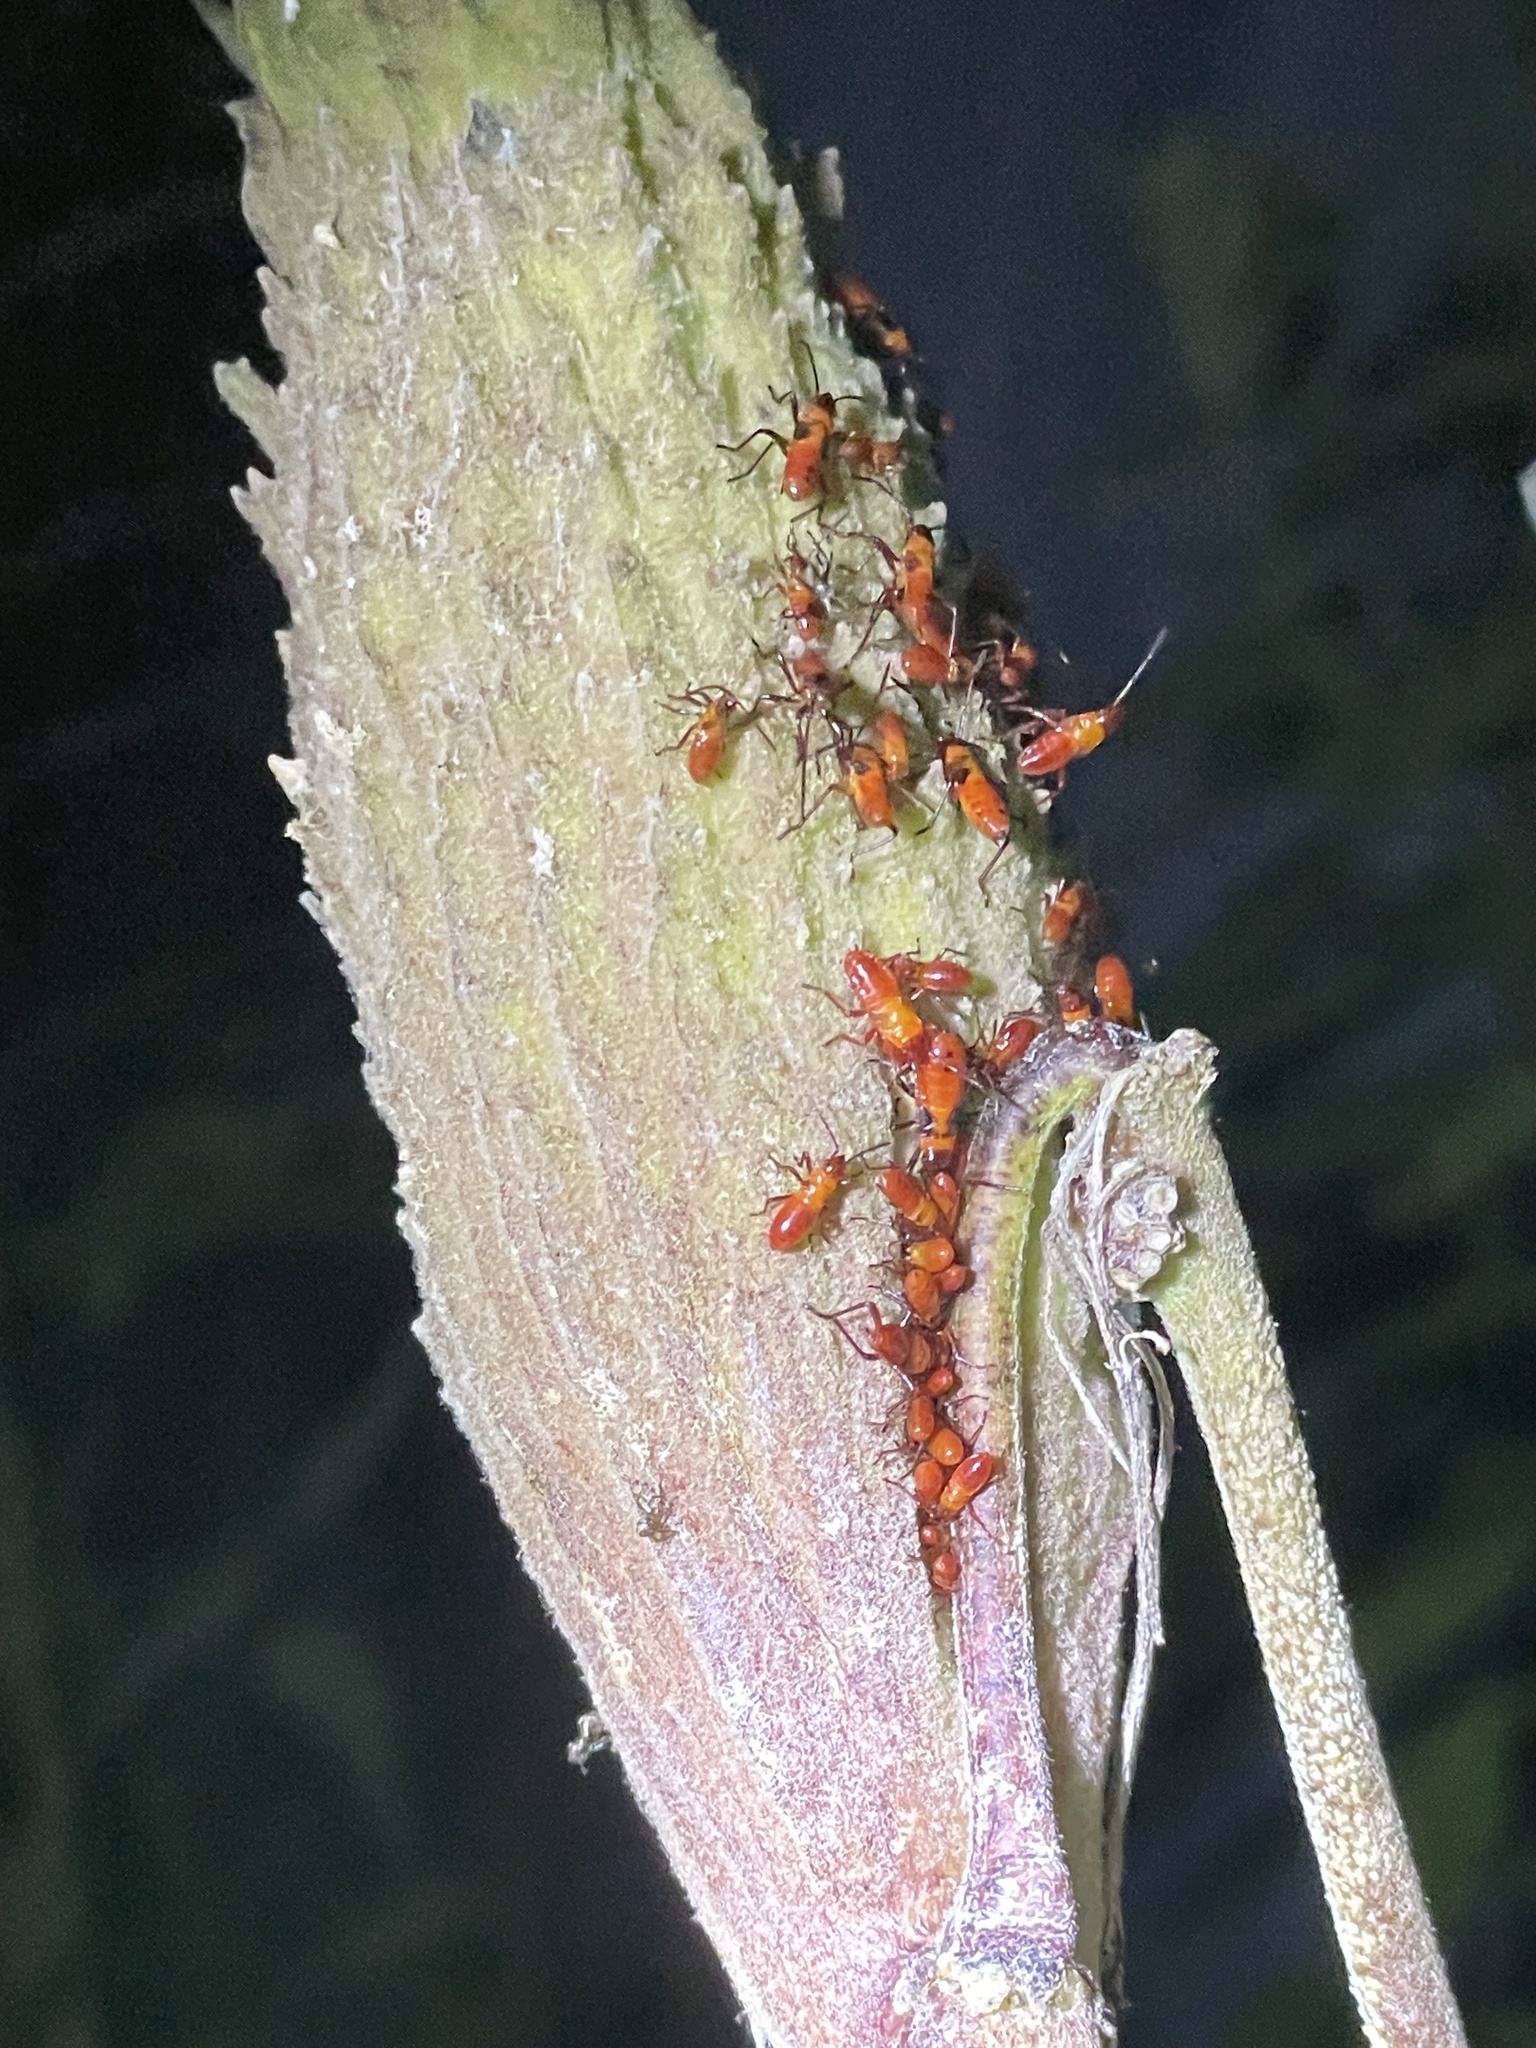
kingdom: Animalia
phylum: Arthropoda
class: Insecta
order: Hemiptera
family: Lygaeidae
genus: Oncopeltus
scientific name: Oncopeltus fasciatus
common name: Large milkweed bug
